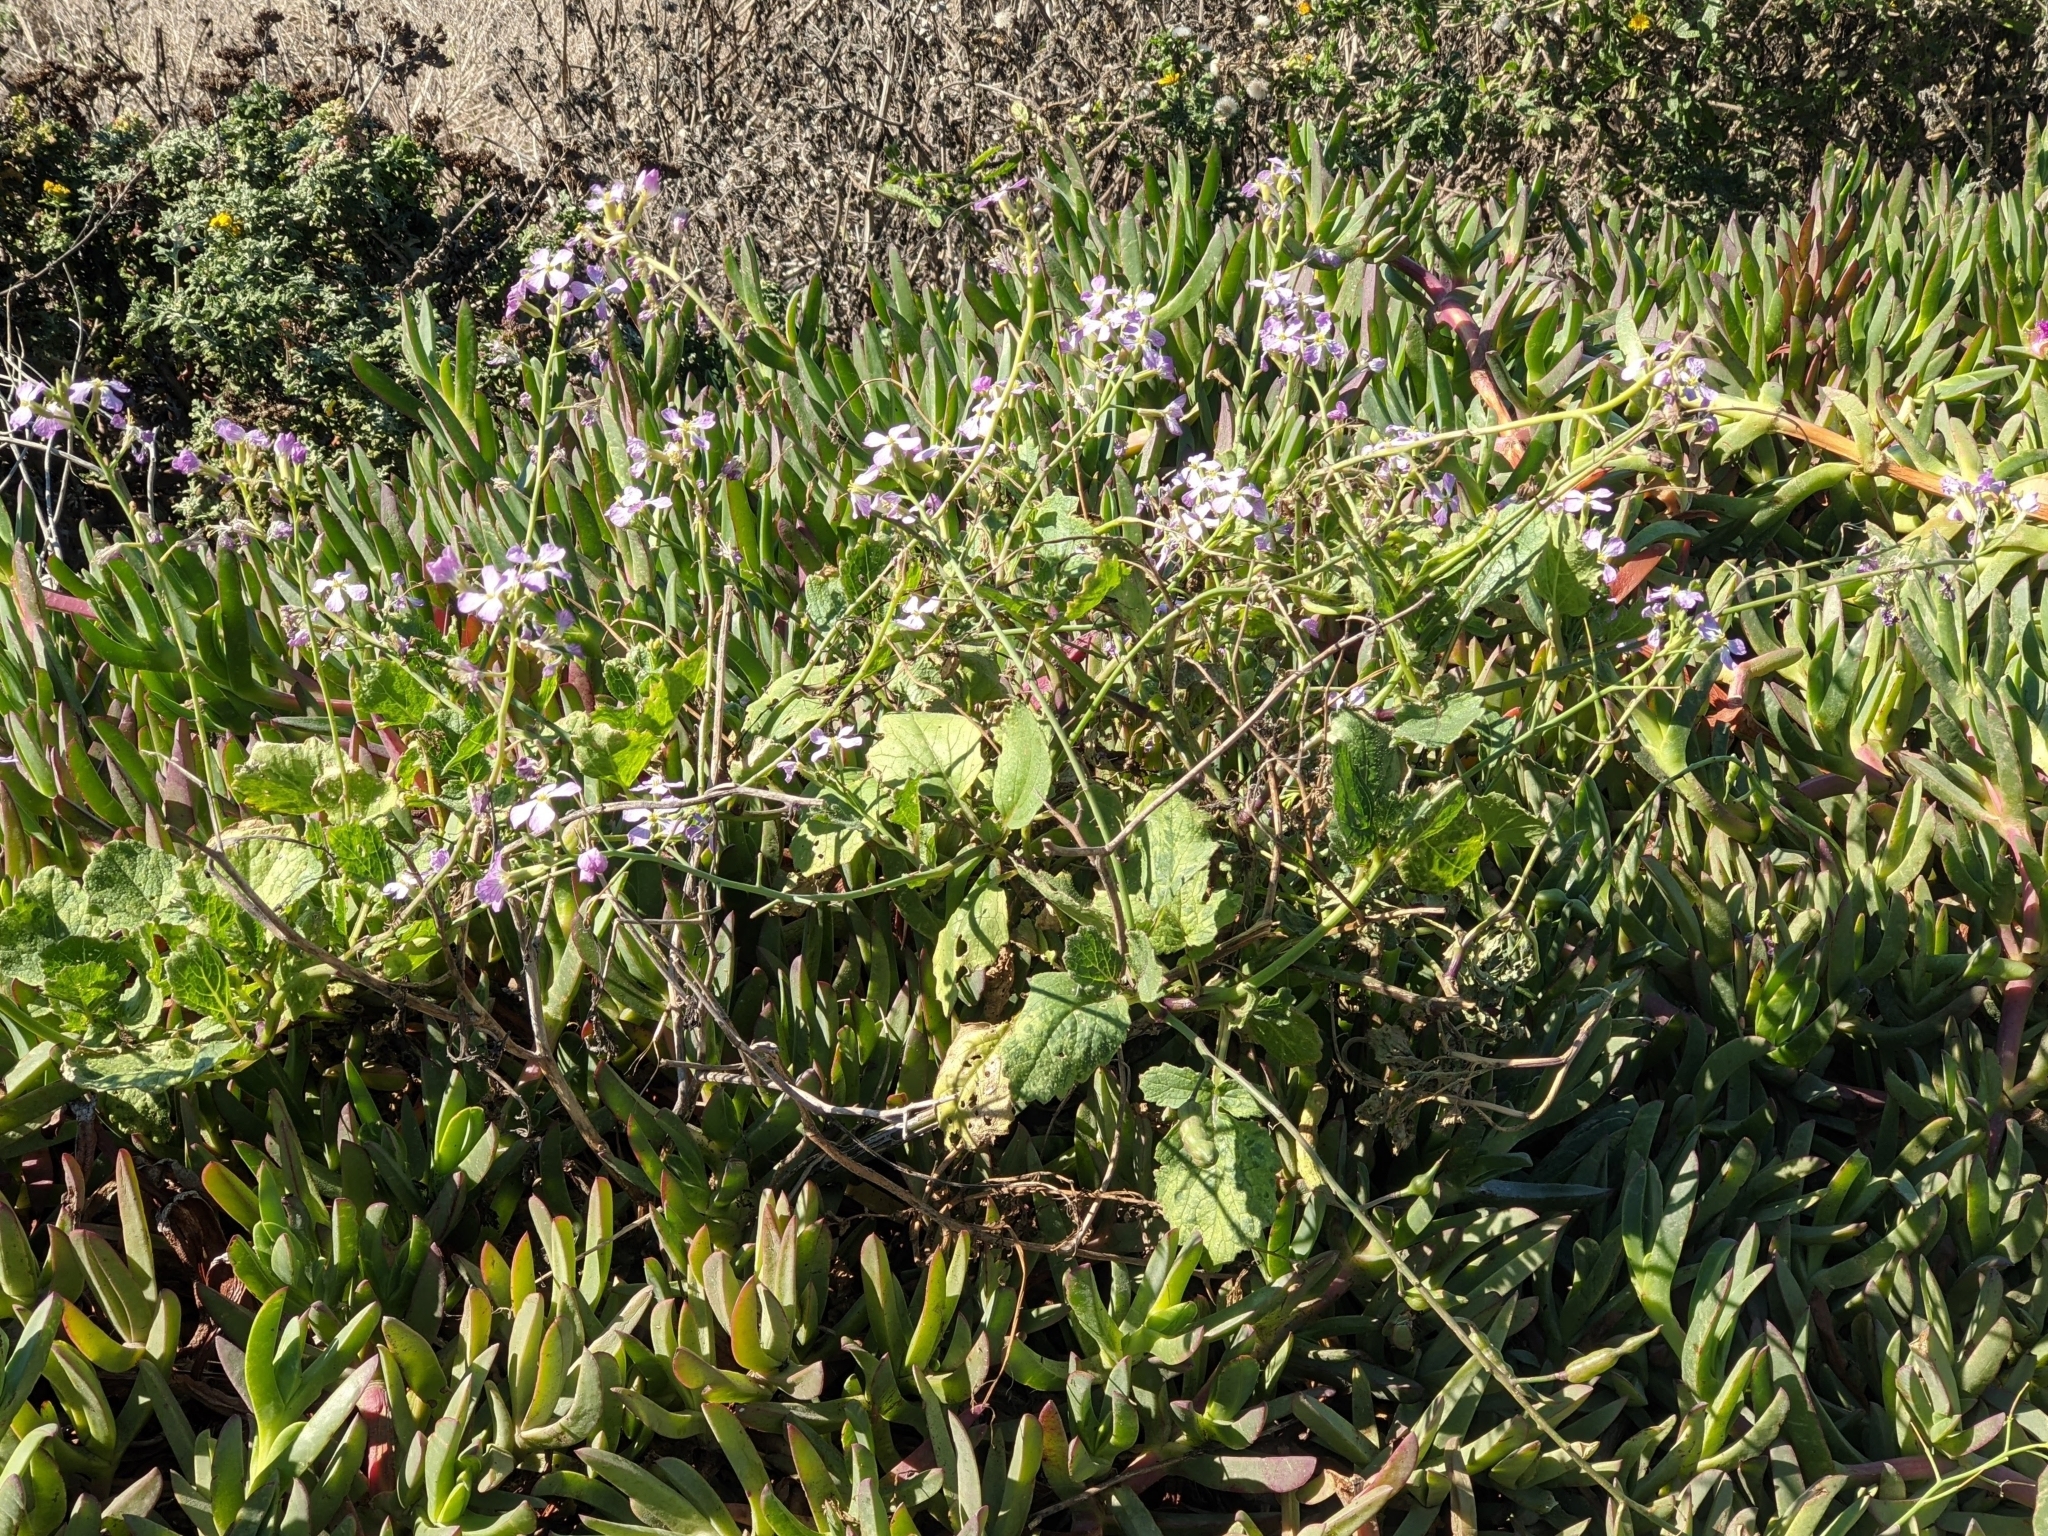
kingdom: Plantae
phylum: Tracheophyta
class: Magnoliopsida
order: Brassicales
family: Brassicaceae
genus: Raphanus
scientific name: Raphanus sativus
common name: Cultivated radish
